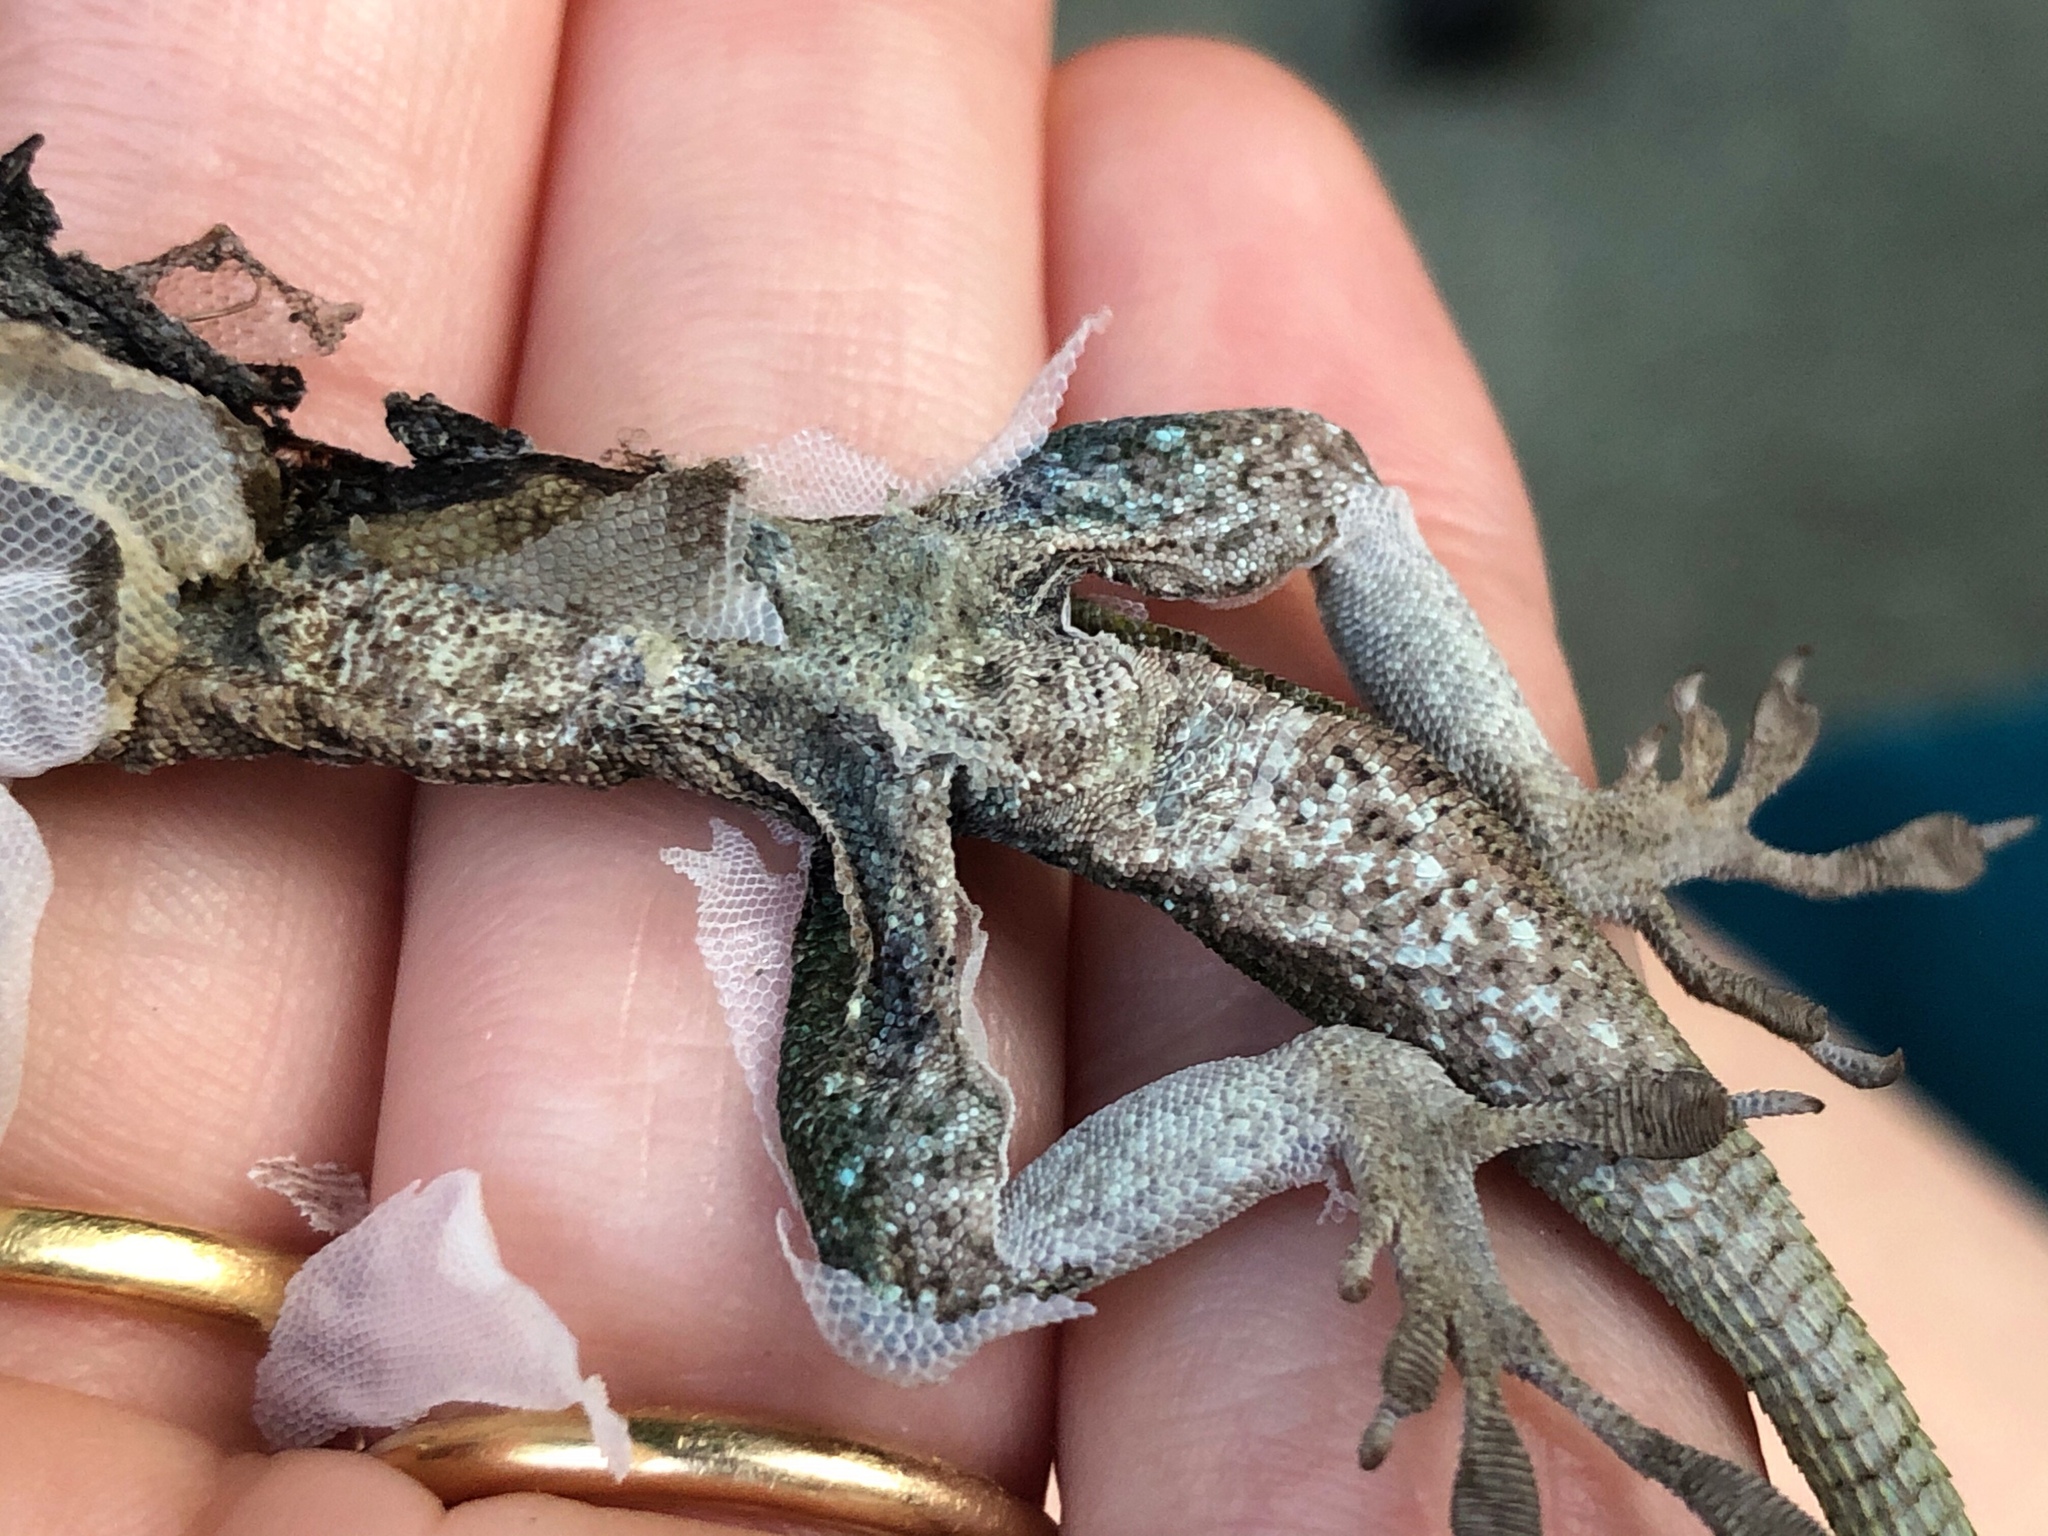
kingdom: Animalia
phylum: Chordata
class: Squamata
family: Dactyloidae
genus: Anolis
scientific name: Anolis carolinensis
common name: Green anole
